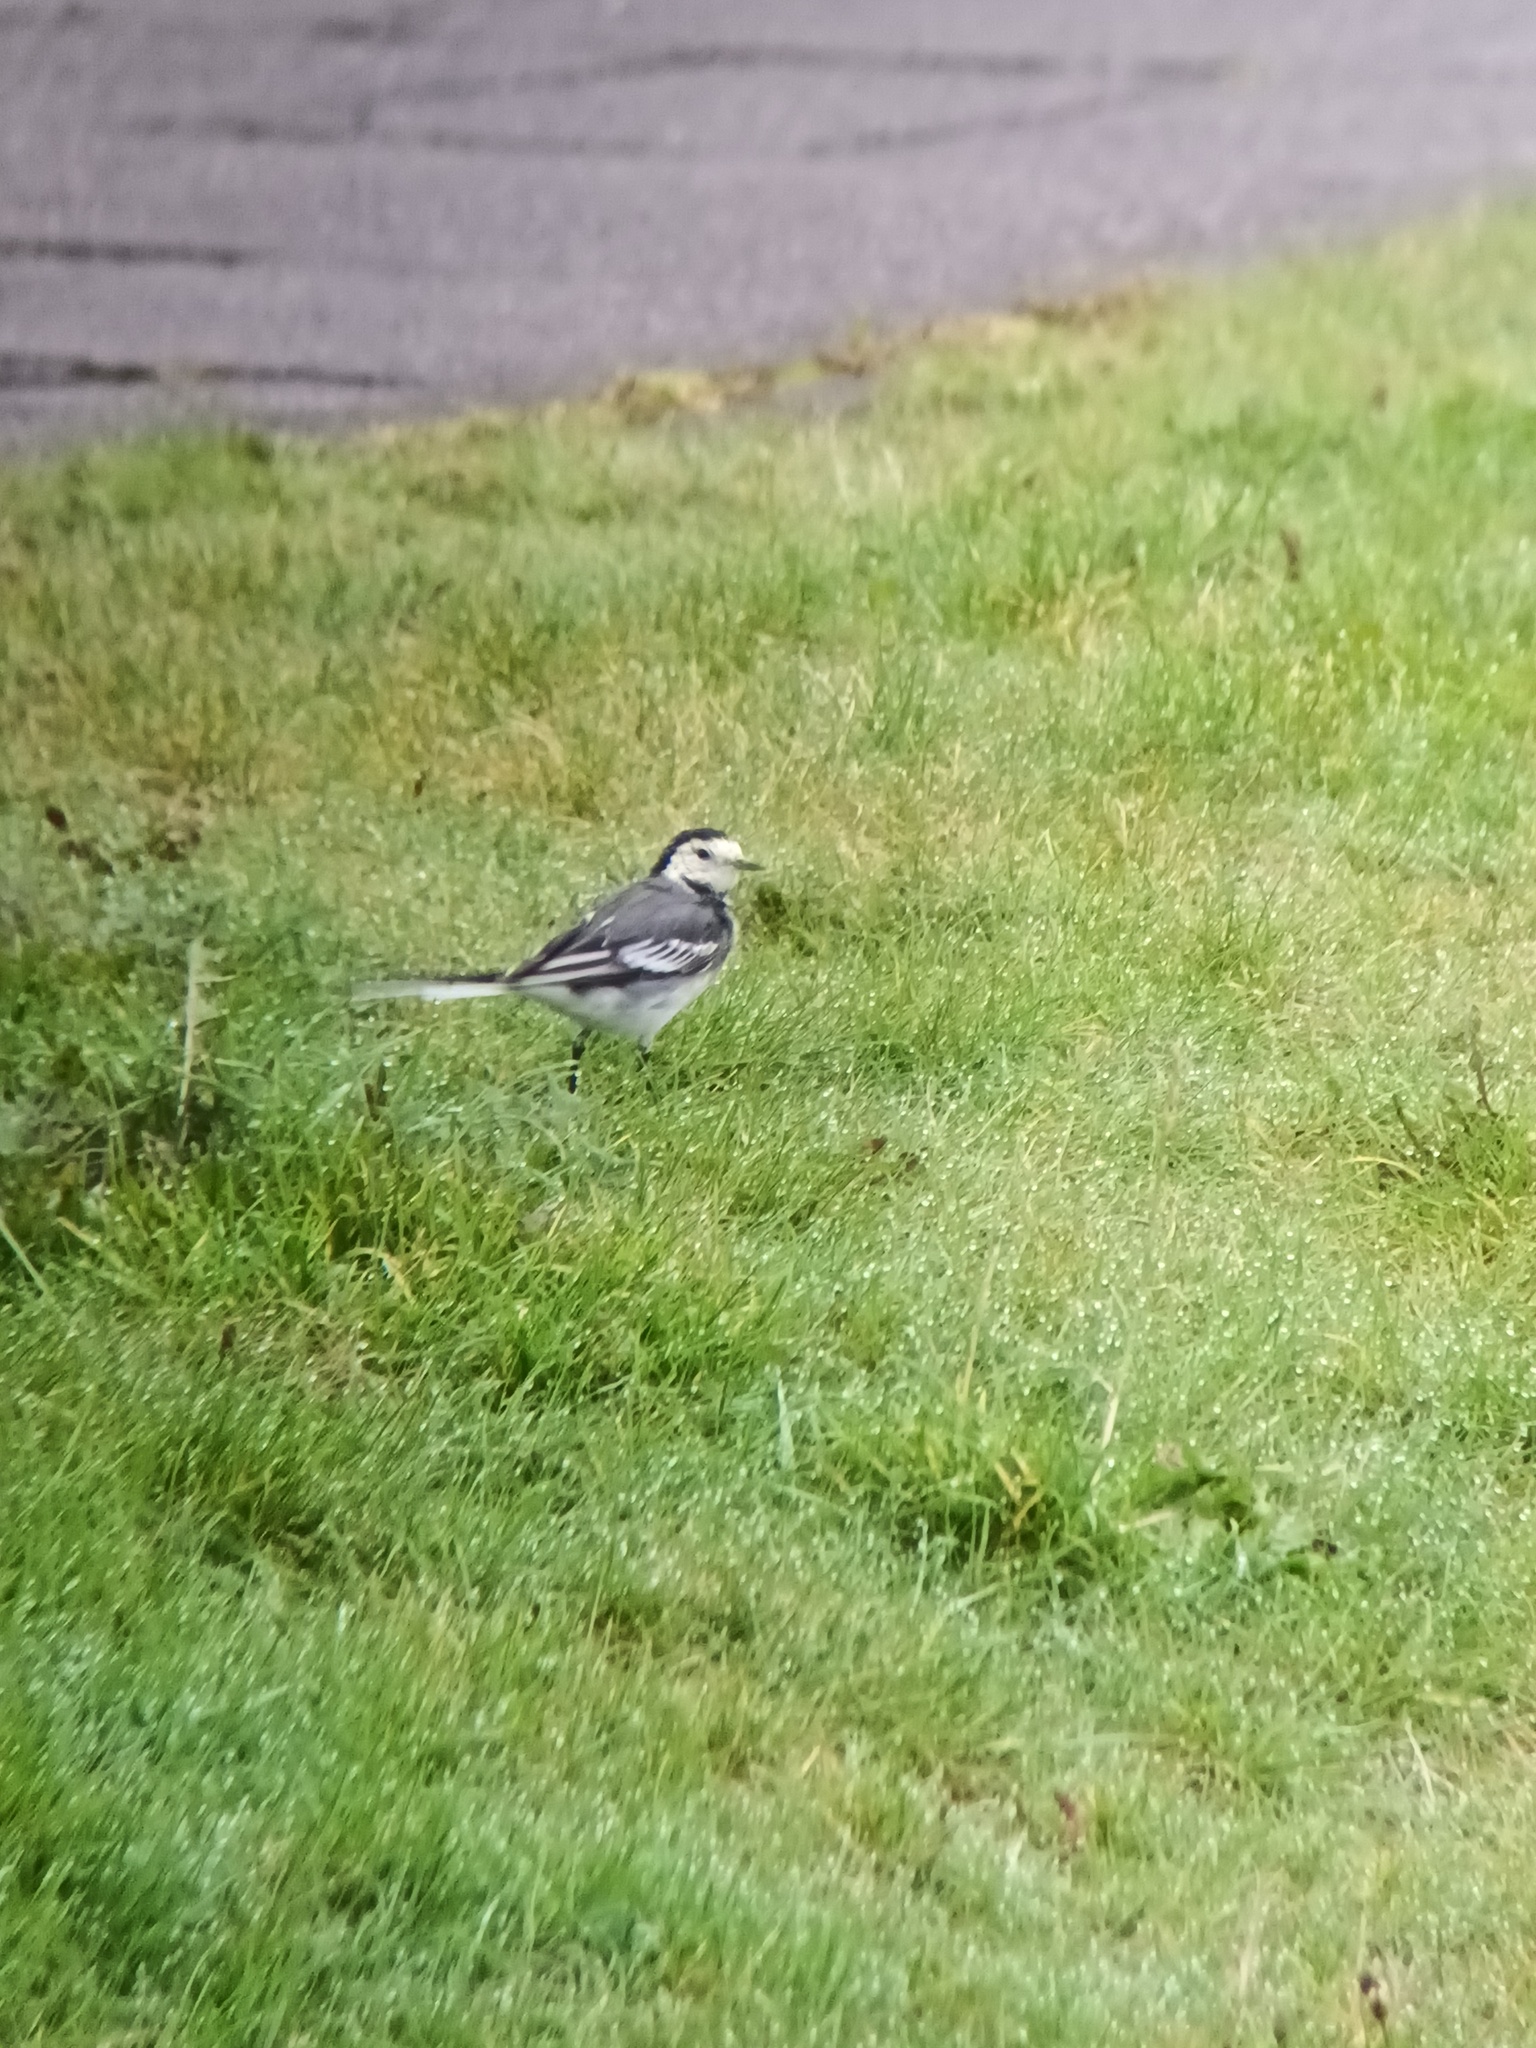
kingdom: Animalia
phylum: Chordata
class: Aves
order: Passeriformes
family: Motacillidae
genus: Motacilla
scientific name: Motacilla alba
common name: White wagtail
